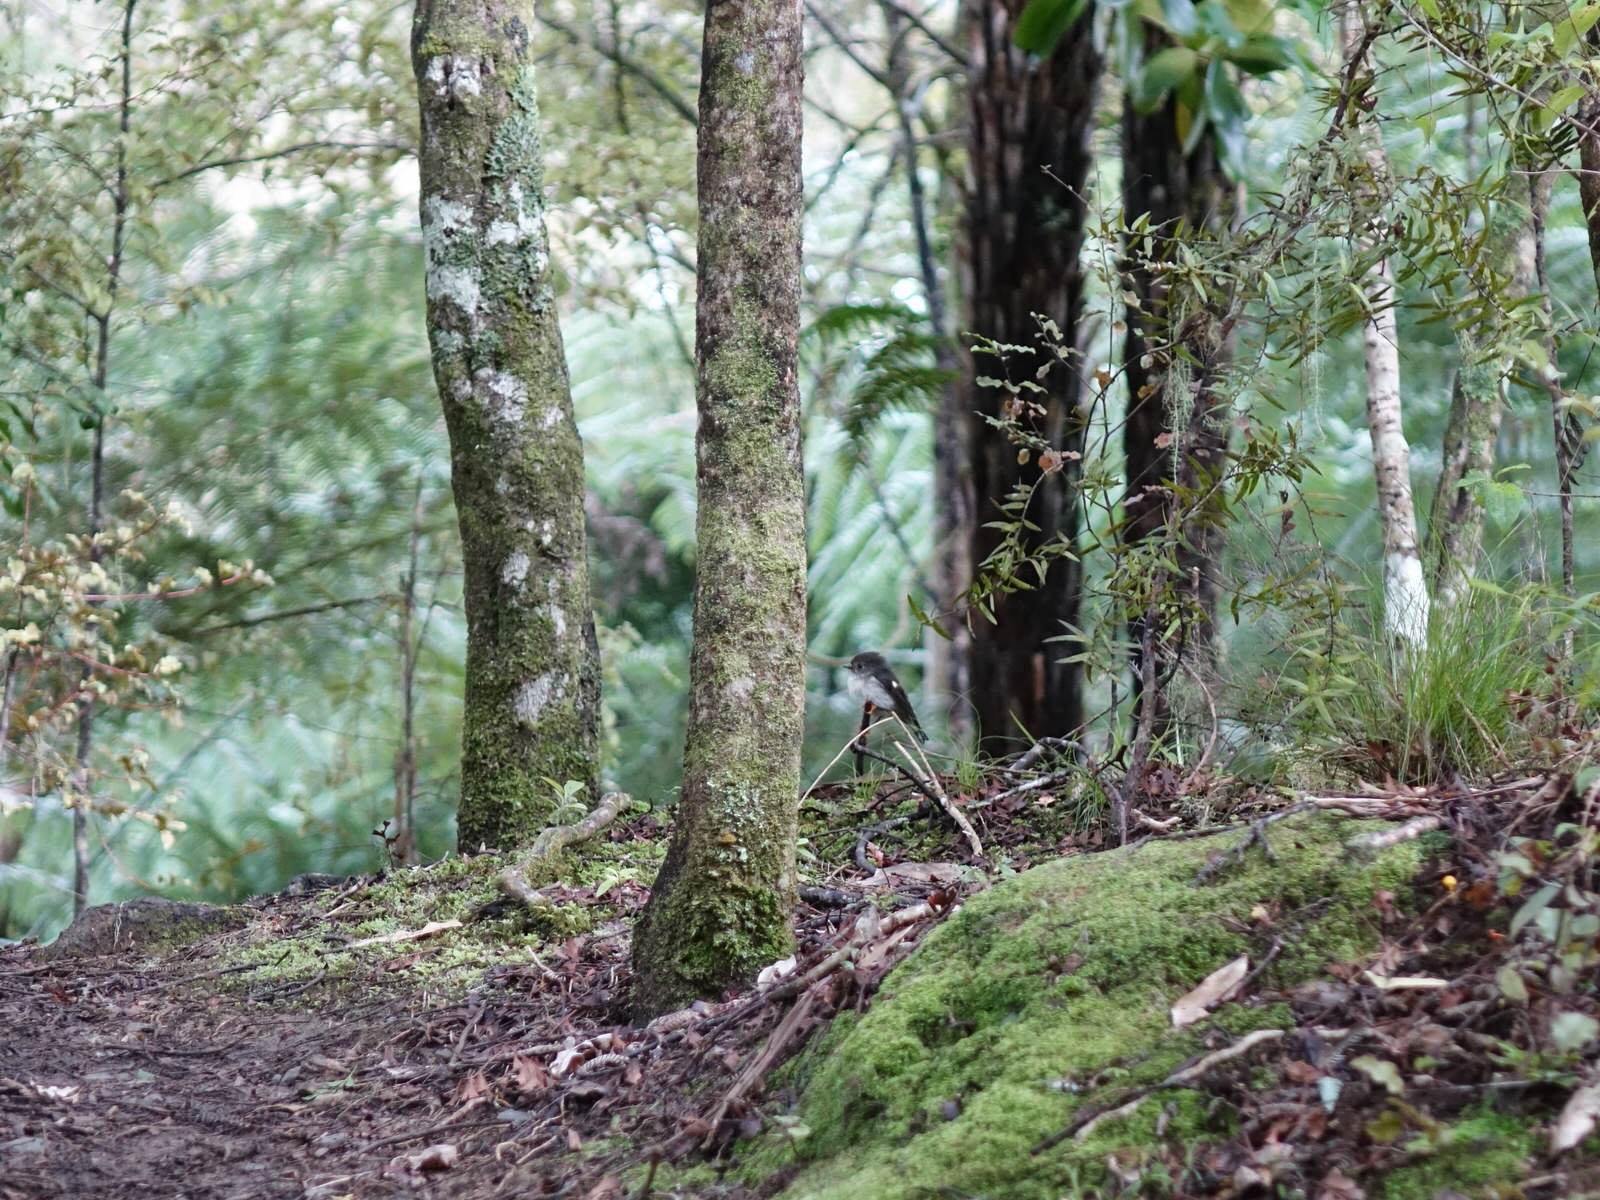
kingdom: Animalia
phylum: Chordata
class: Aves
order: Passeriformes
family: Petroicidae
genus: Petroica
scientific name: Petroica macrocephala
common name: Tomtit
